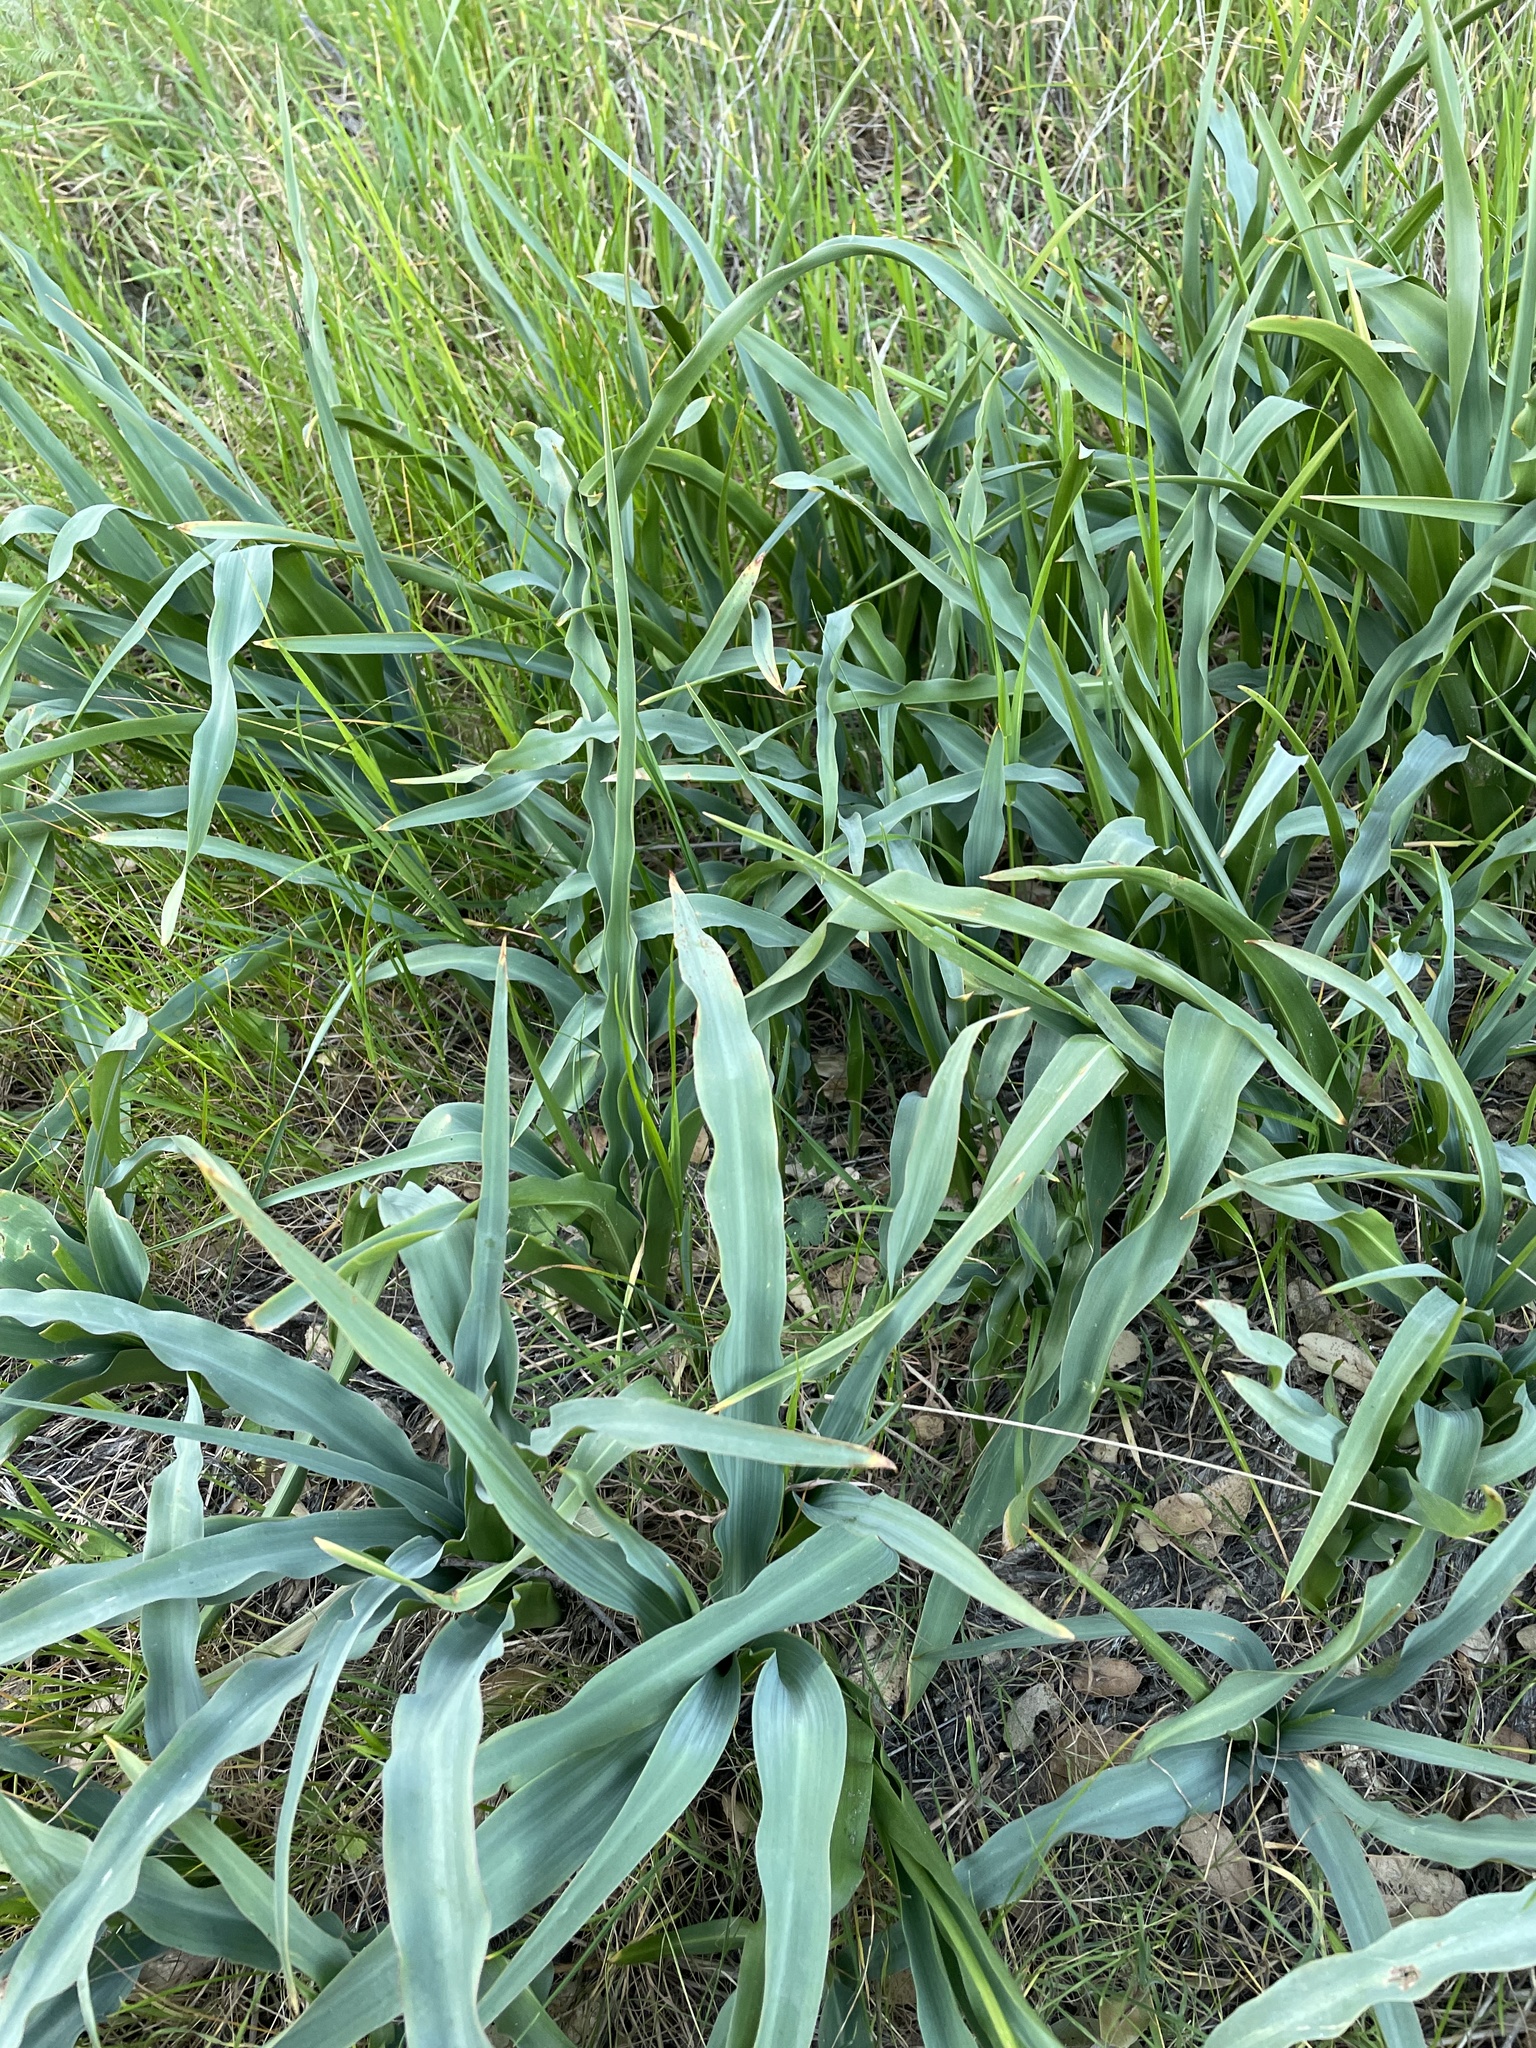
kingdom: Plantae
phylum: Tracheophyta
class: Liliopsida
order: Asparagales
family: Asparagaceae
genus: Chlorogalum
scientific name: Chlorogalum pomeridianum
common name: Amole
